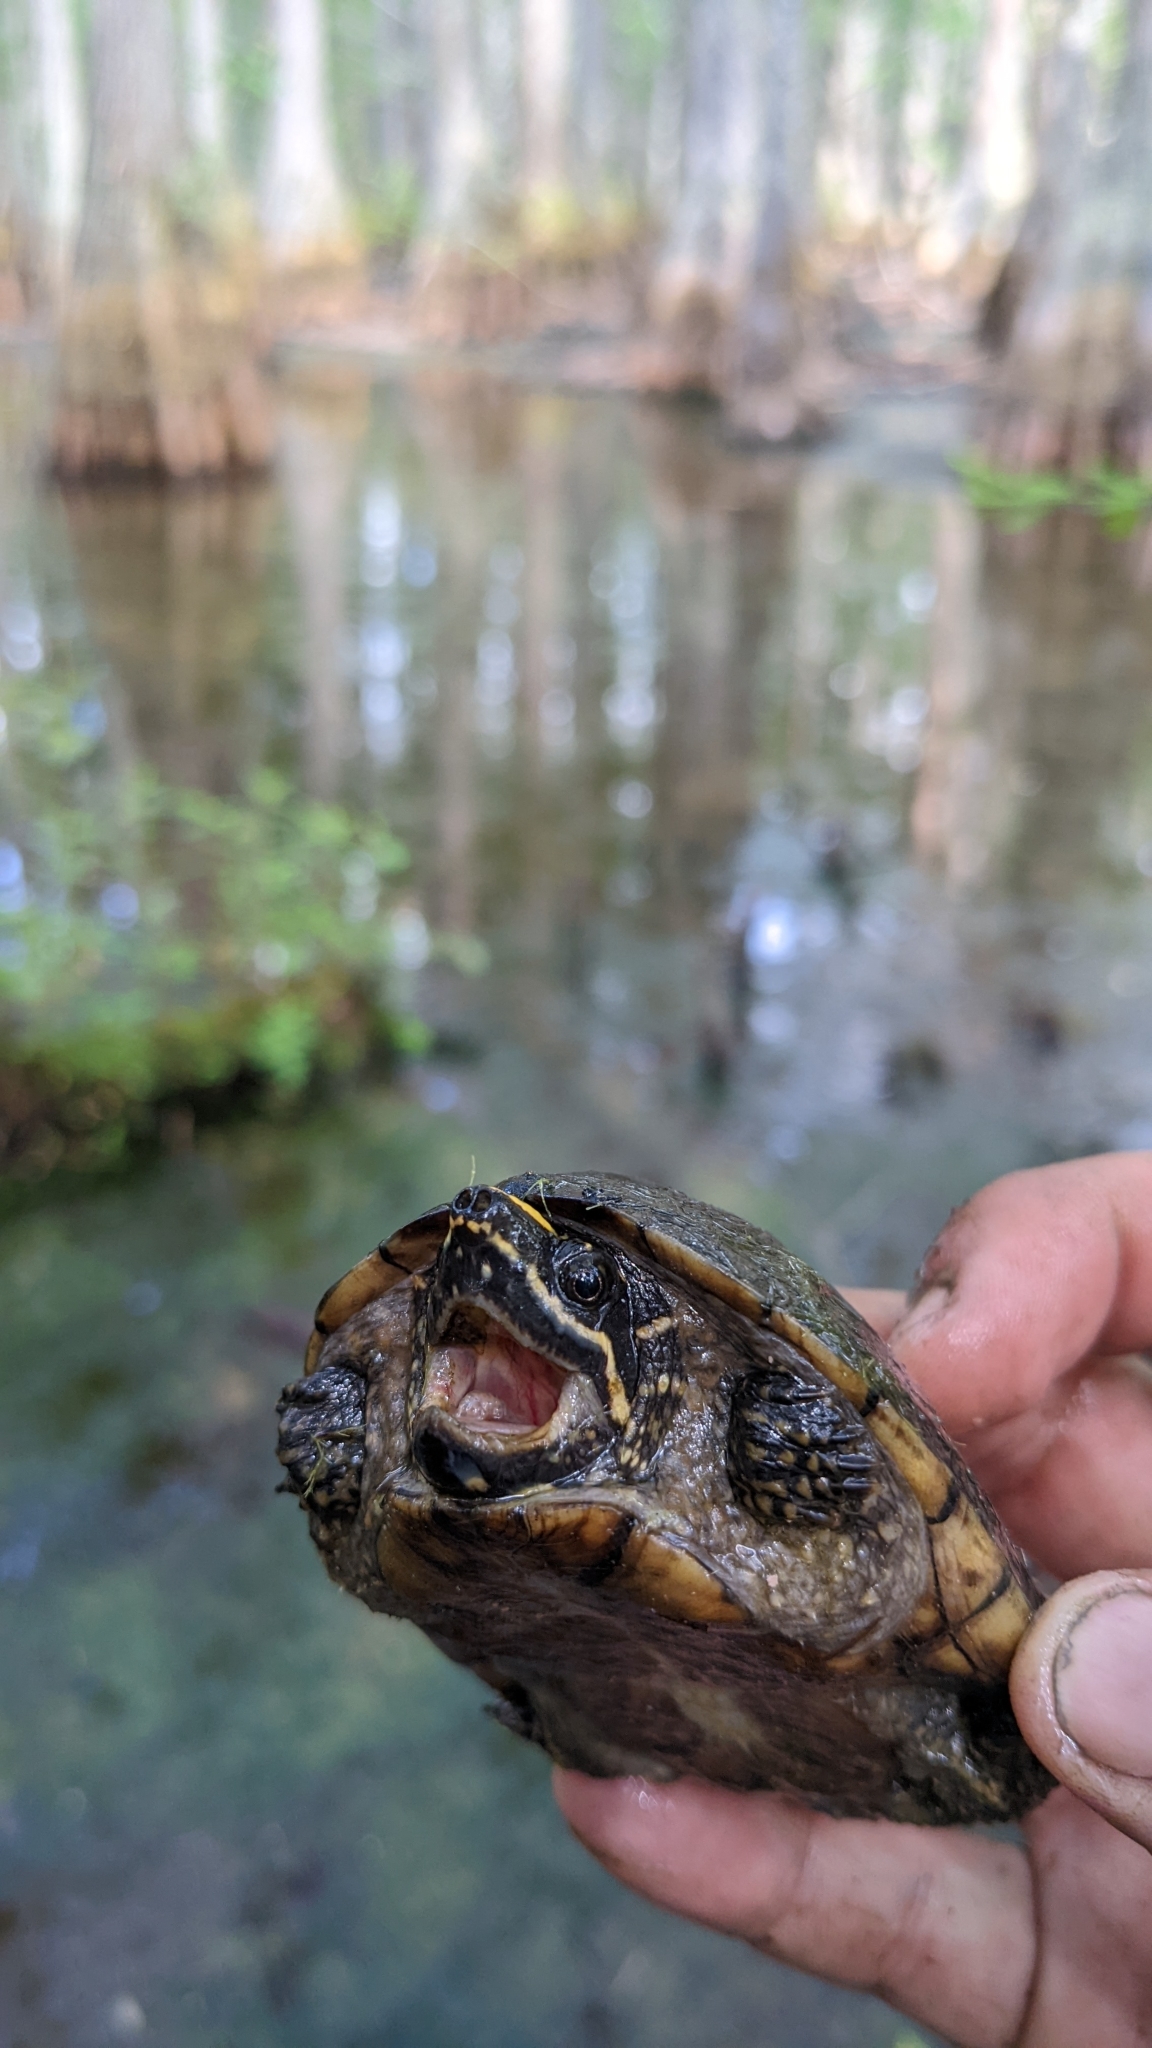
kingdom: Animalia
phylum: Chordata
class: Testudines
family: Kinosternidae
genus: Sternotherus
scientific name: Sternotherus odoratus
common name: Common musk turtle
